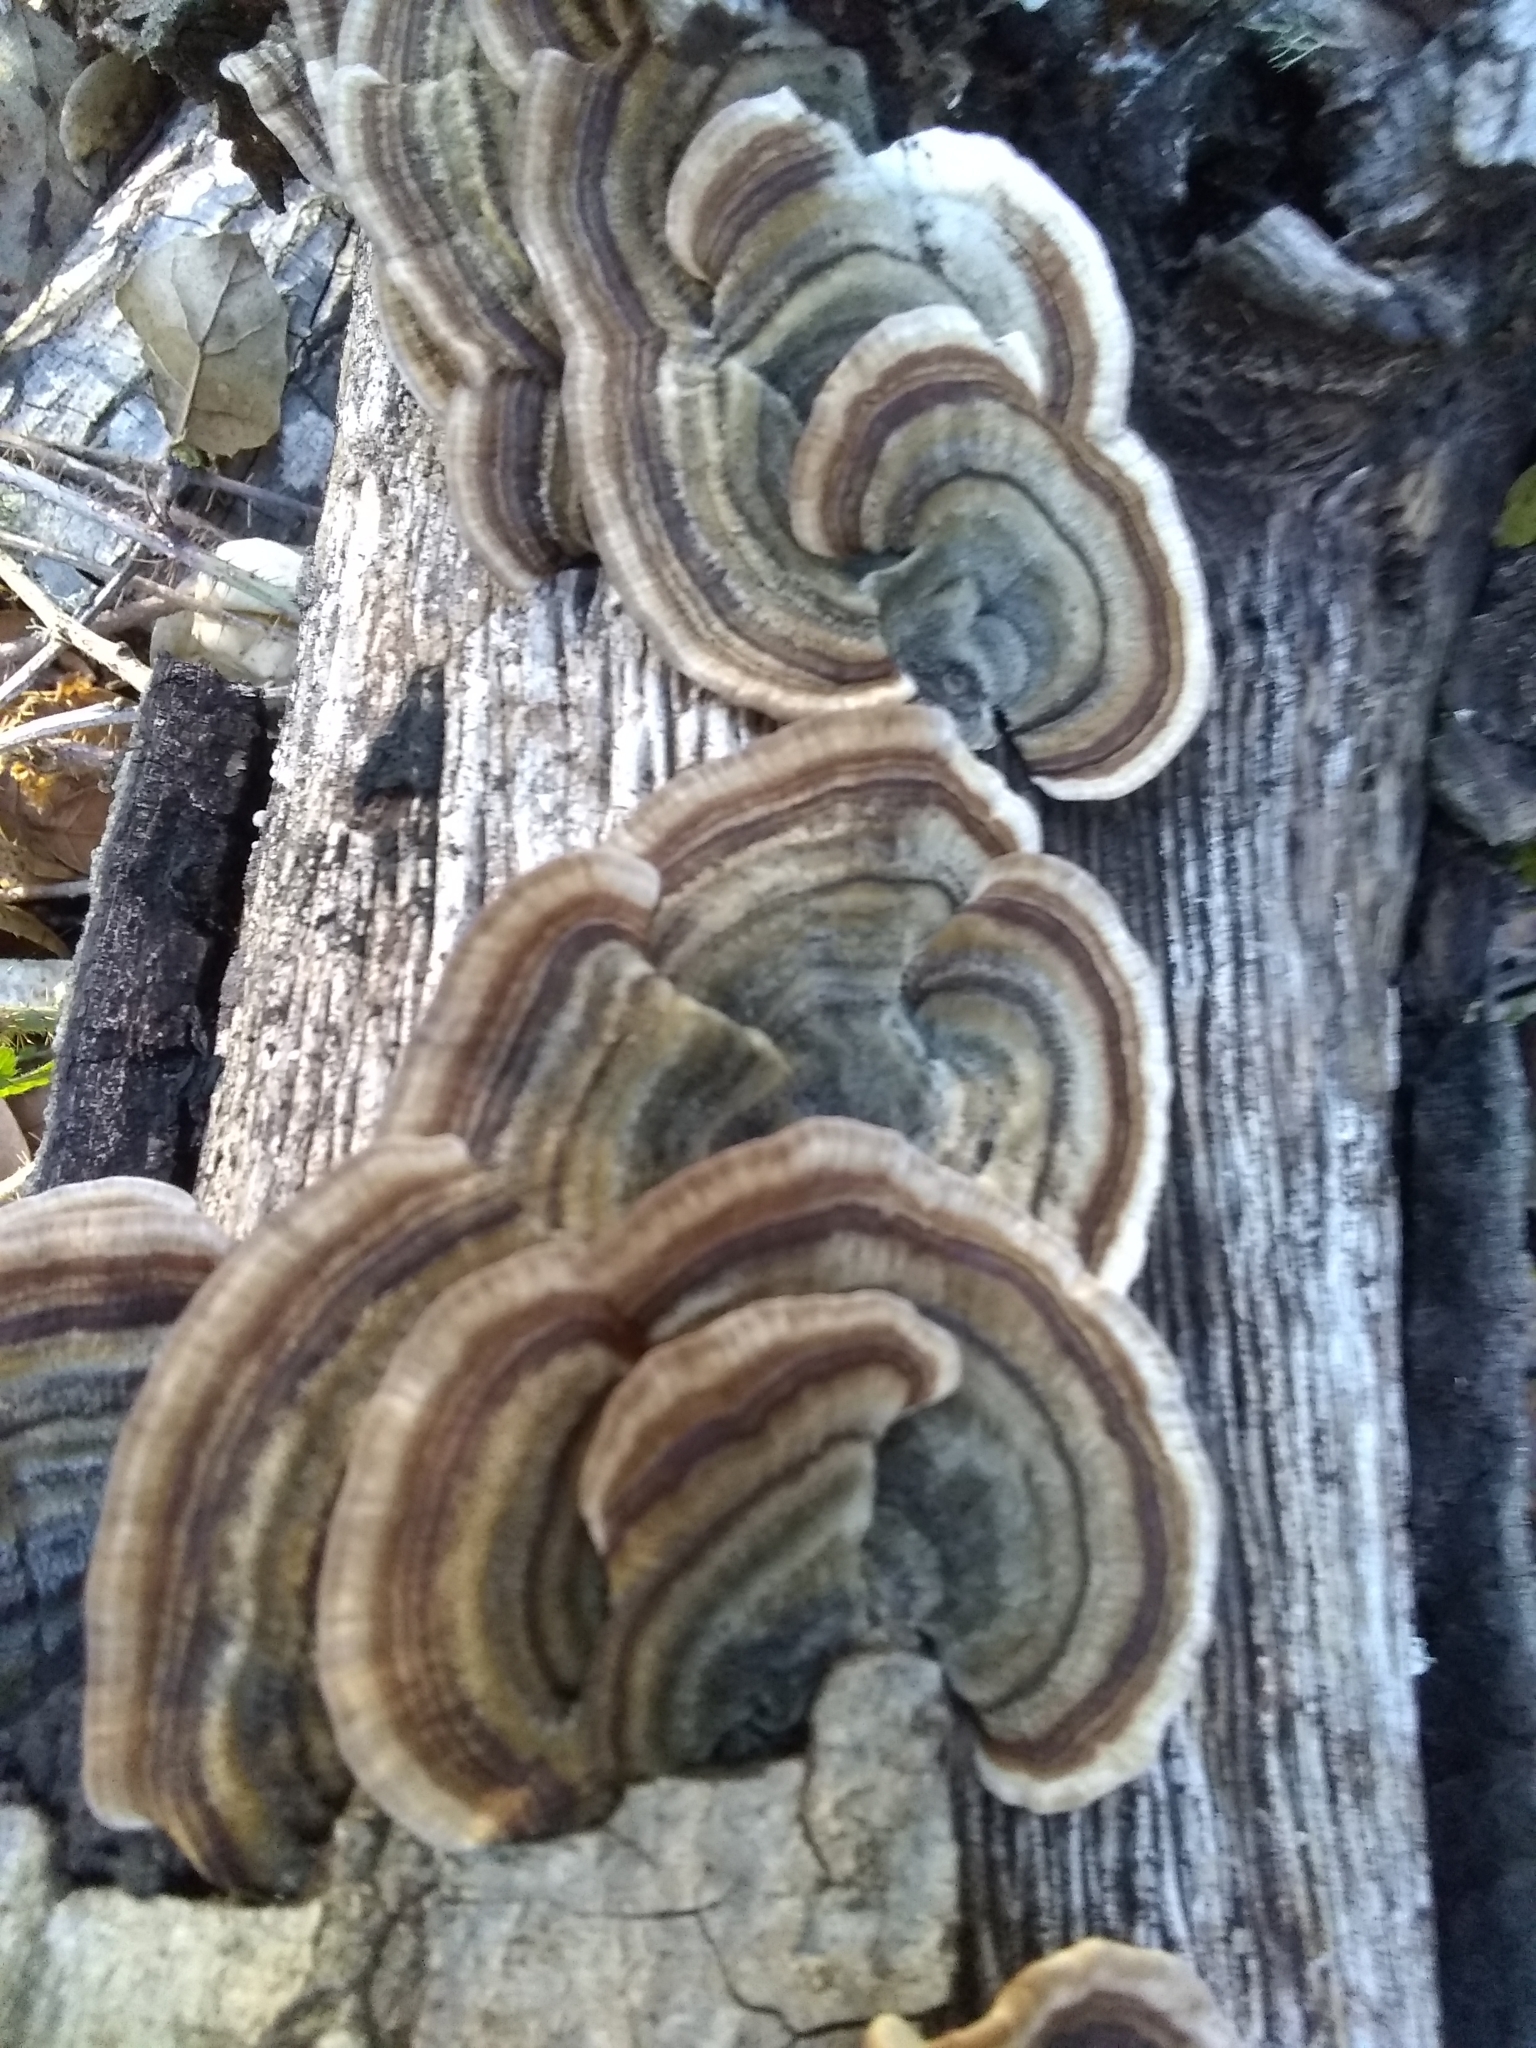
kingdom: Fungi
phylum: Basidiomycota
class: Agaricomycetes
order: Polyporales
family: Polyporaceae
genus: Trametes
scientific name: Trametes versicolor
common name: Turkeytail
